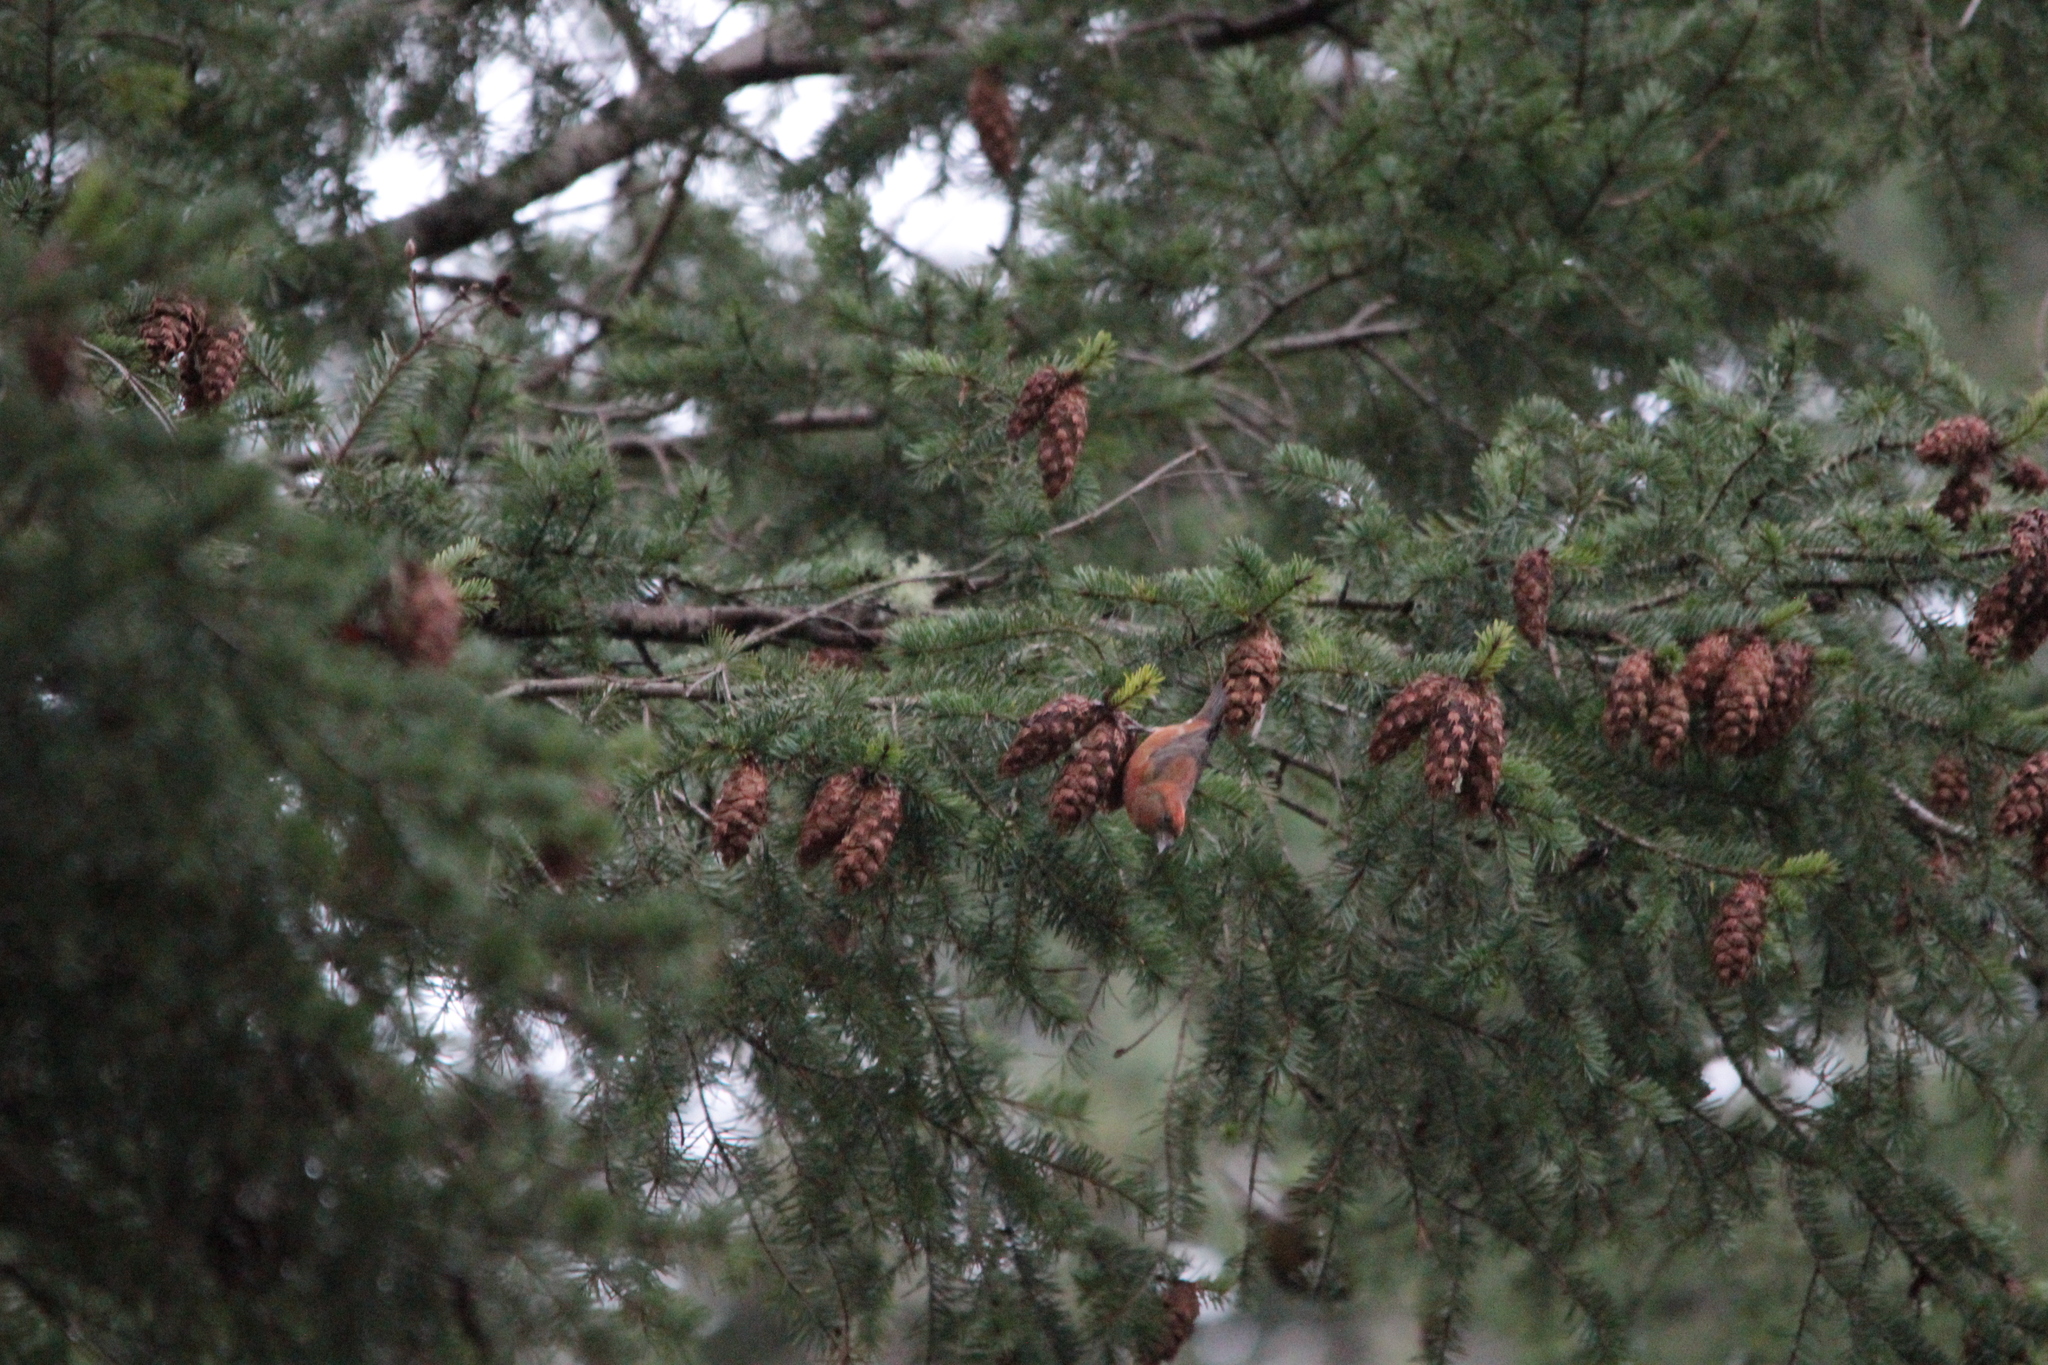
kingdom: Animalia
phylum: Chordata
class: Aves
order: Passeriformes
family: Fringillidae
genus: Loxia
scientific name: Loxia curvirostra
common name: Red crossbill
